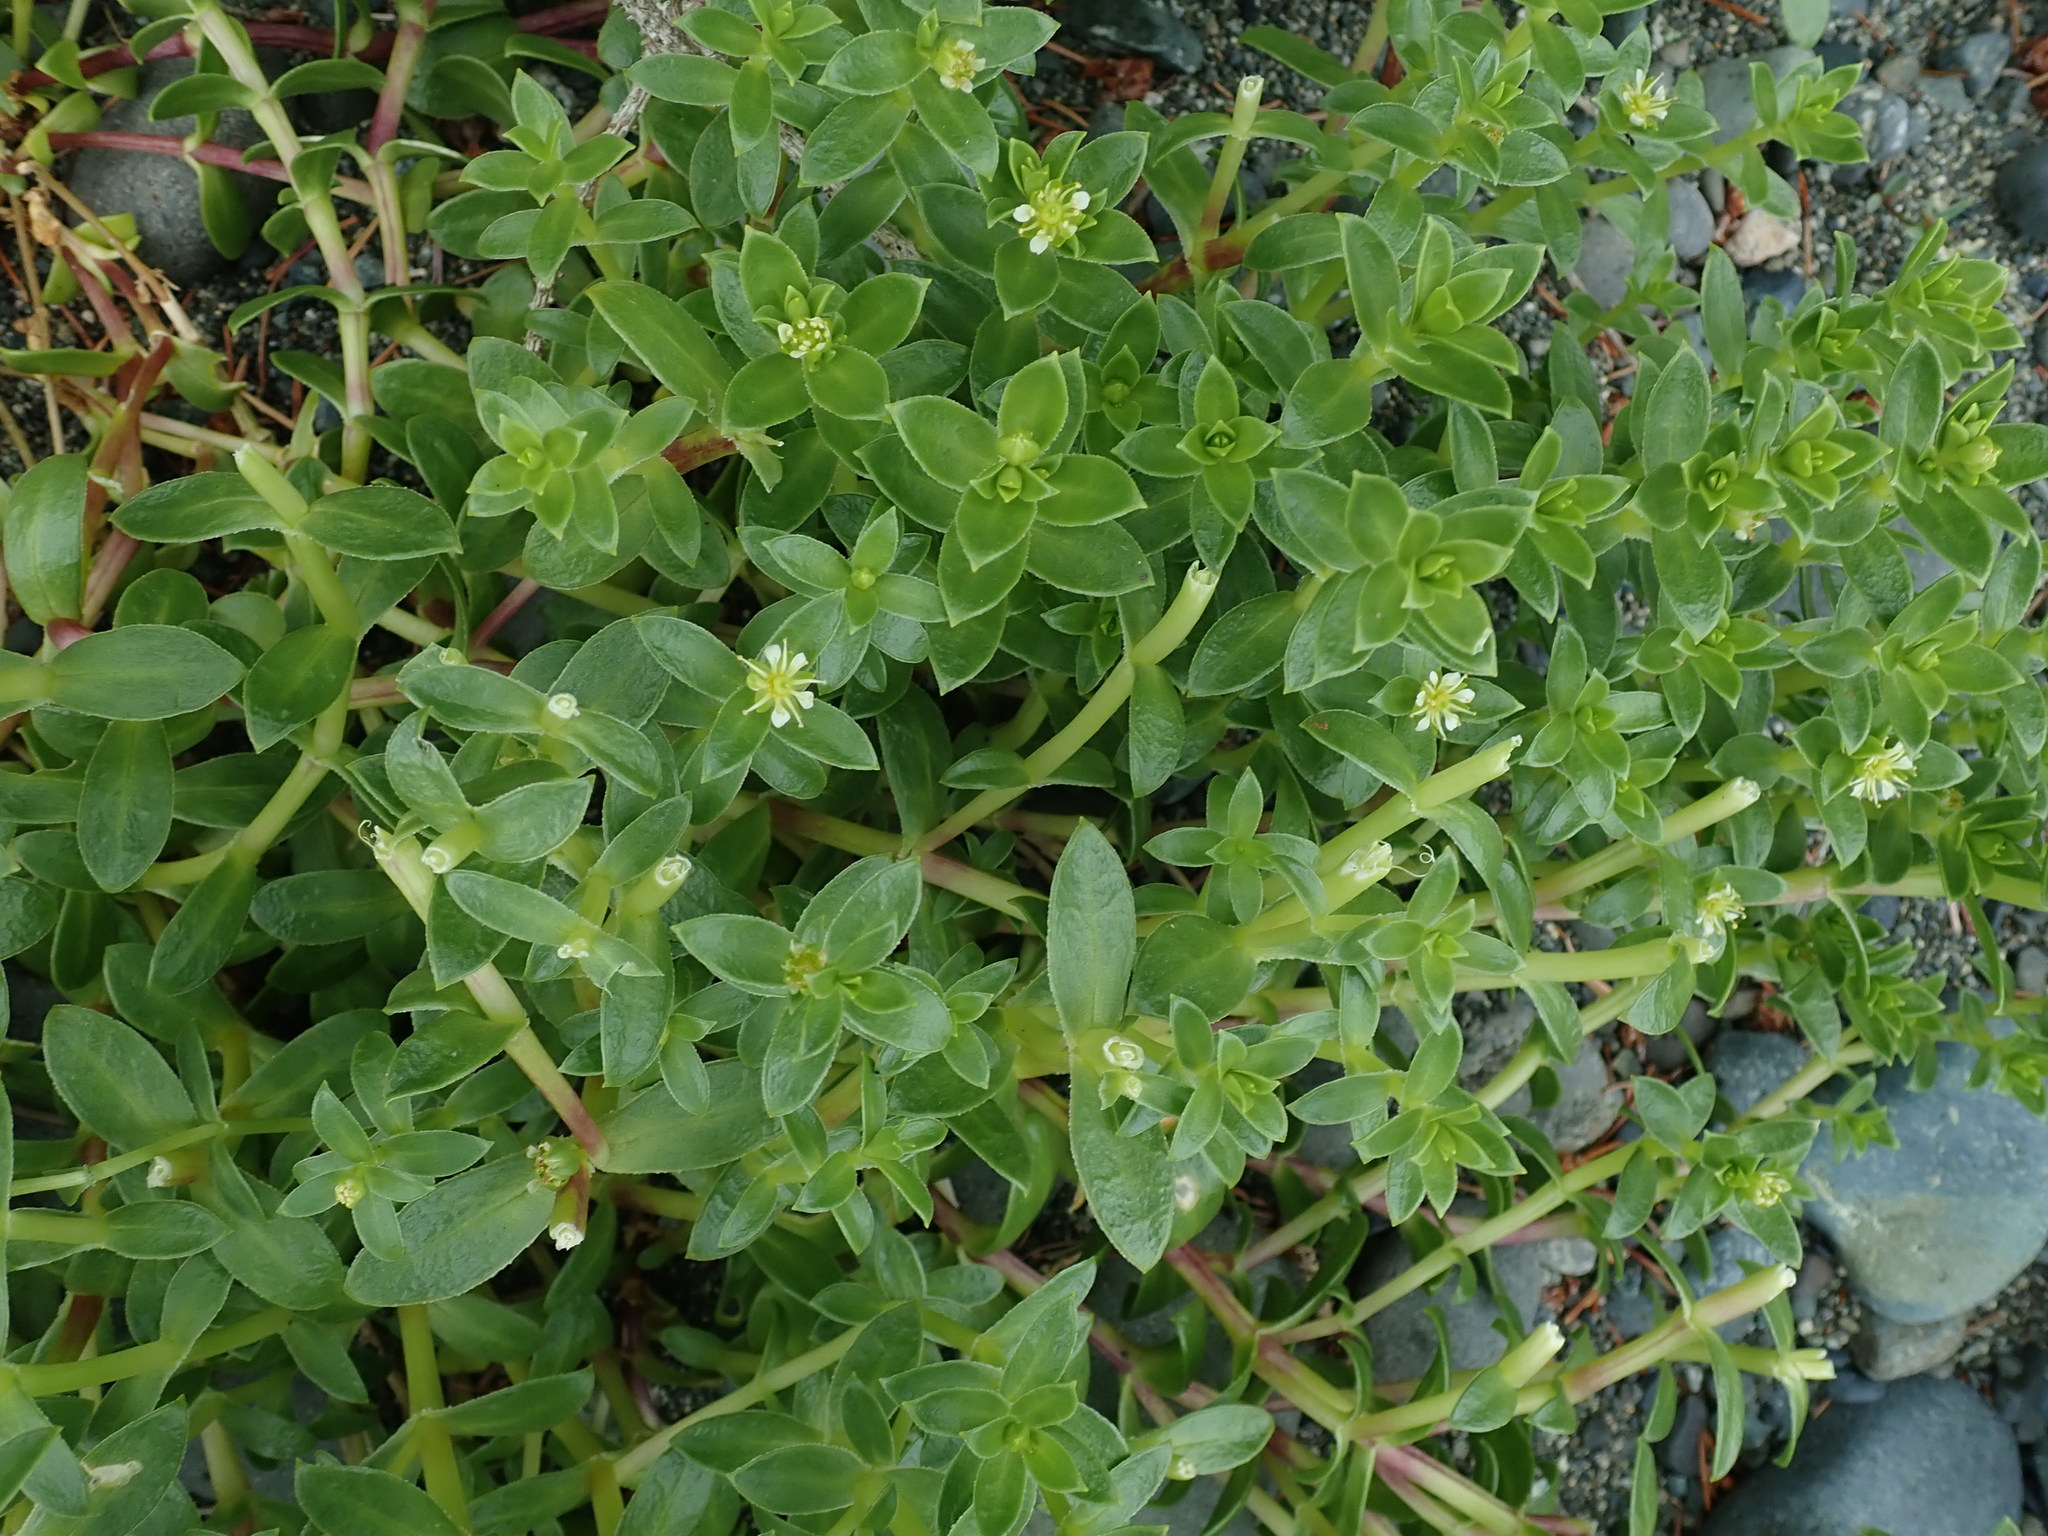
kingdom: Plantae
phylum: Tracheophyta
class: Magnoliopsida
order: Caryophyllales
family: Caryophyllaceae
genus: Honckenya
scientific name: Honckenya peploides
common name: Sea sandwort
